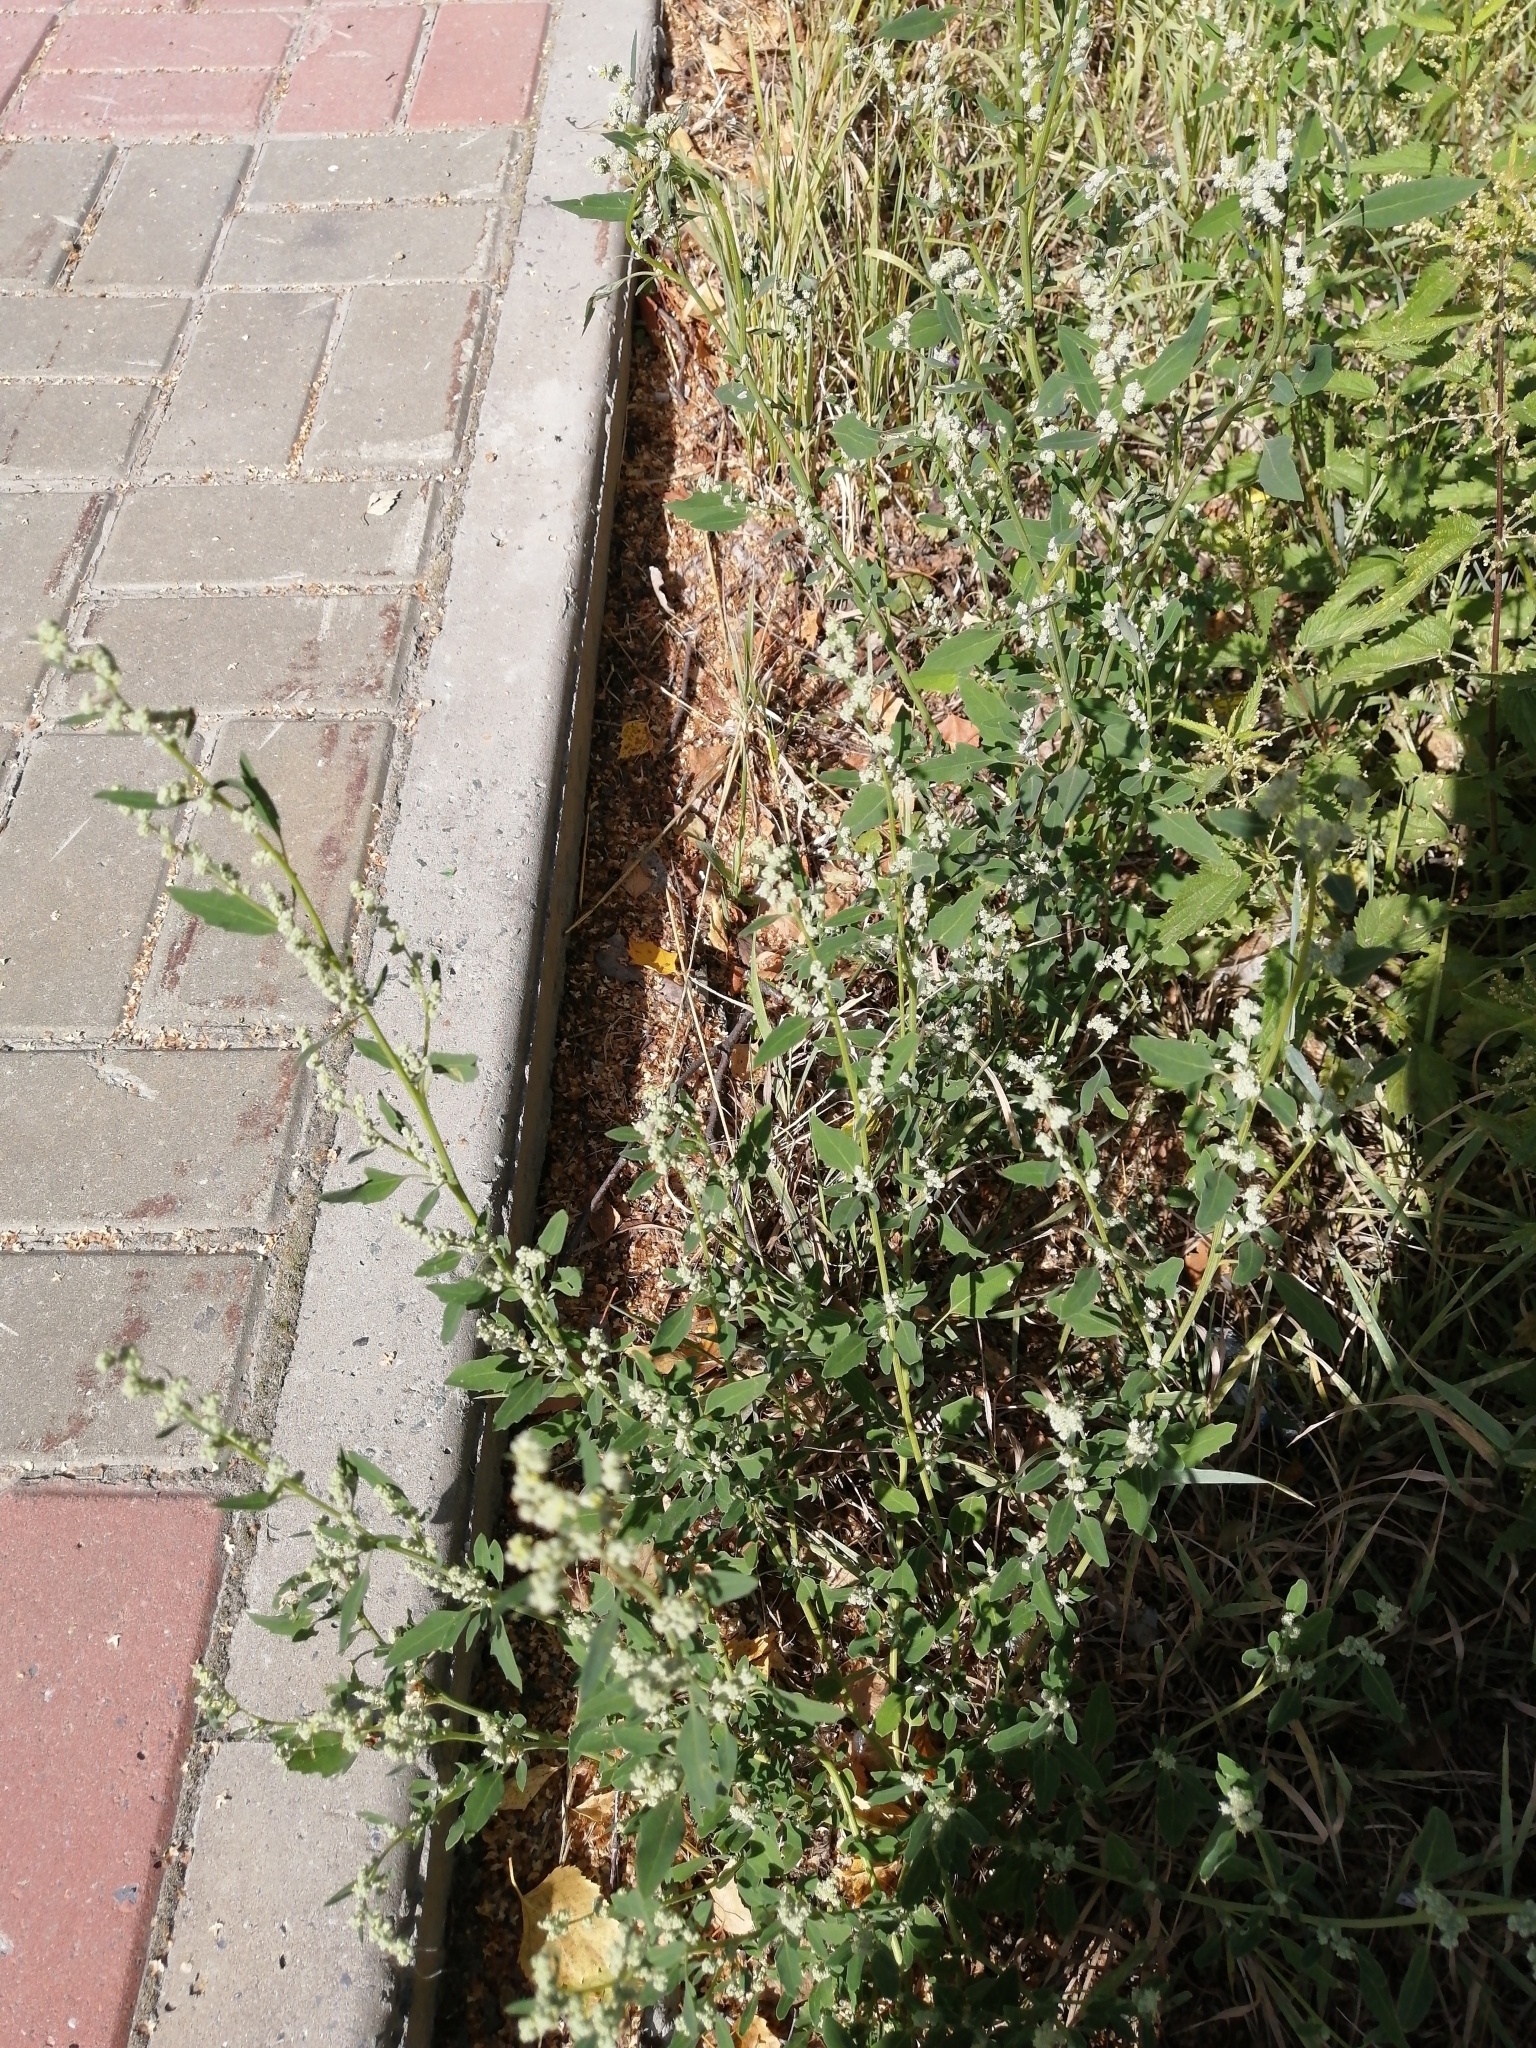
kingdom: Plantae
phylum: Tracheophyta
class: Magnoliopsida
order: Caryophyllales
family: Amaranthaceae
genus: Chenopodium
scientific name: Chenopodium album
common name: Fat-hen
